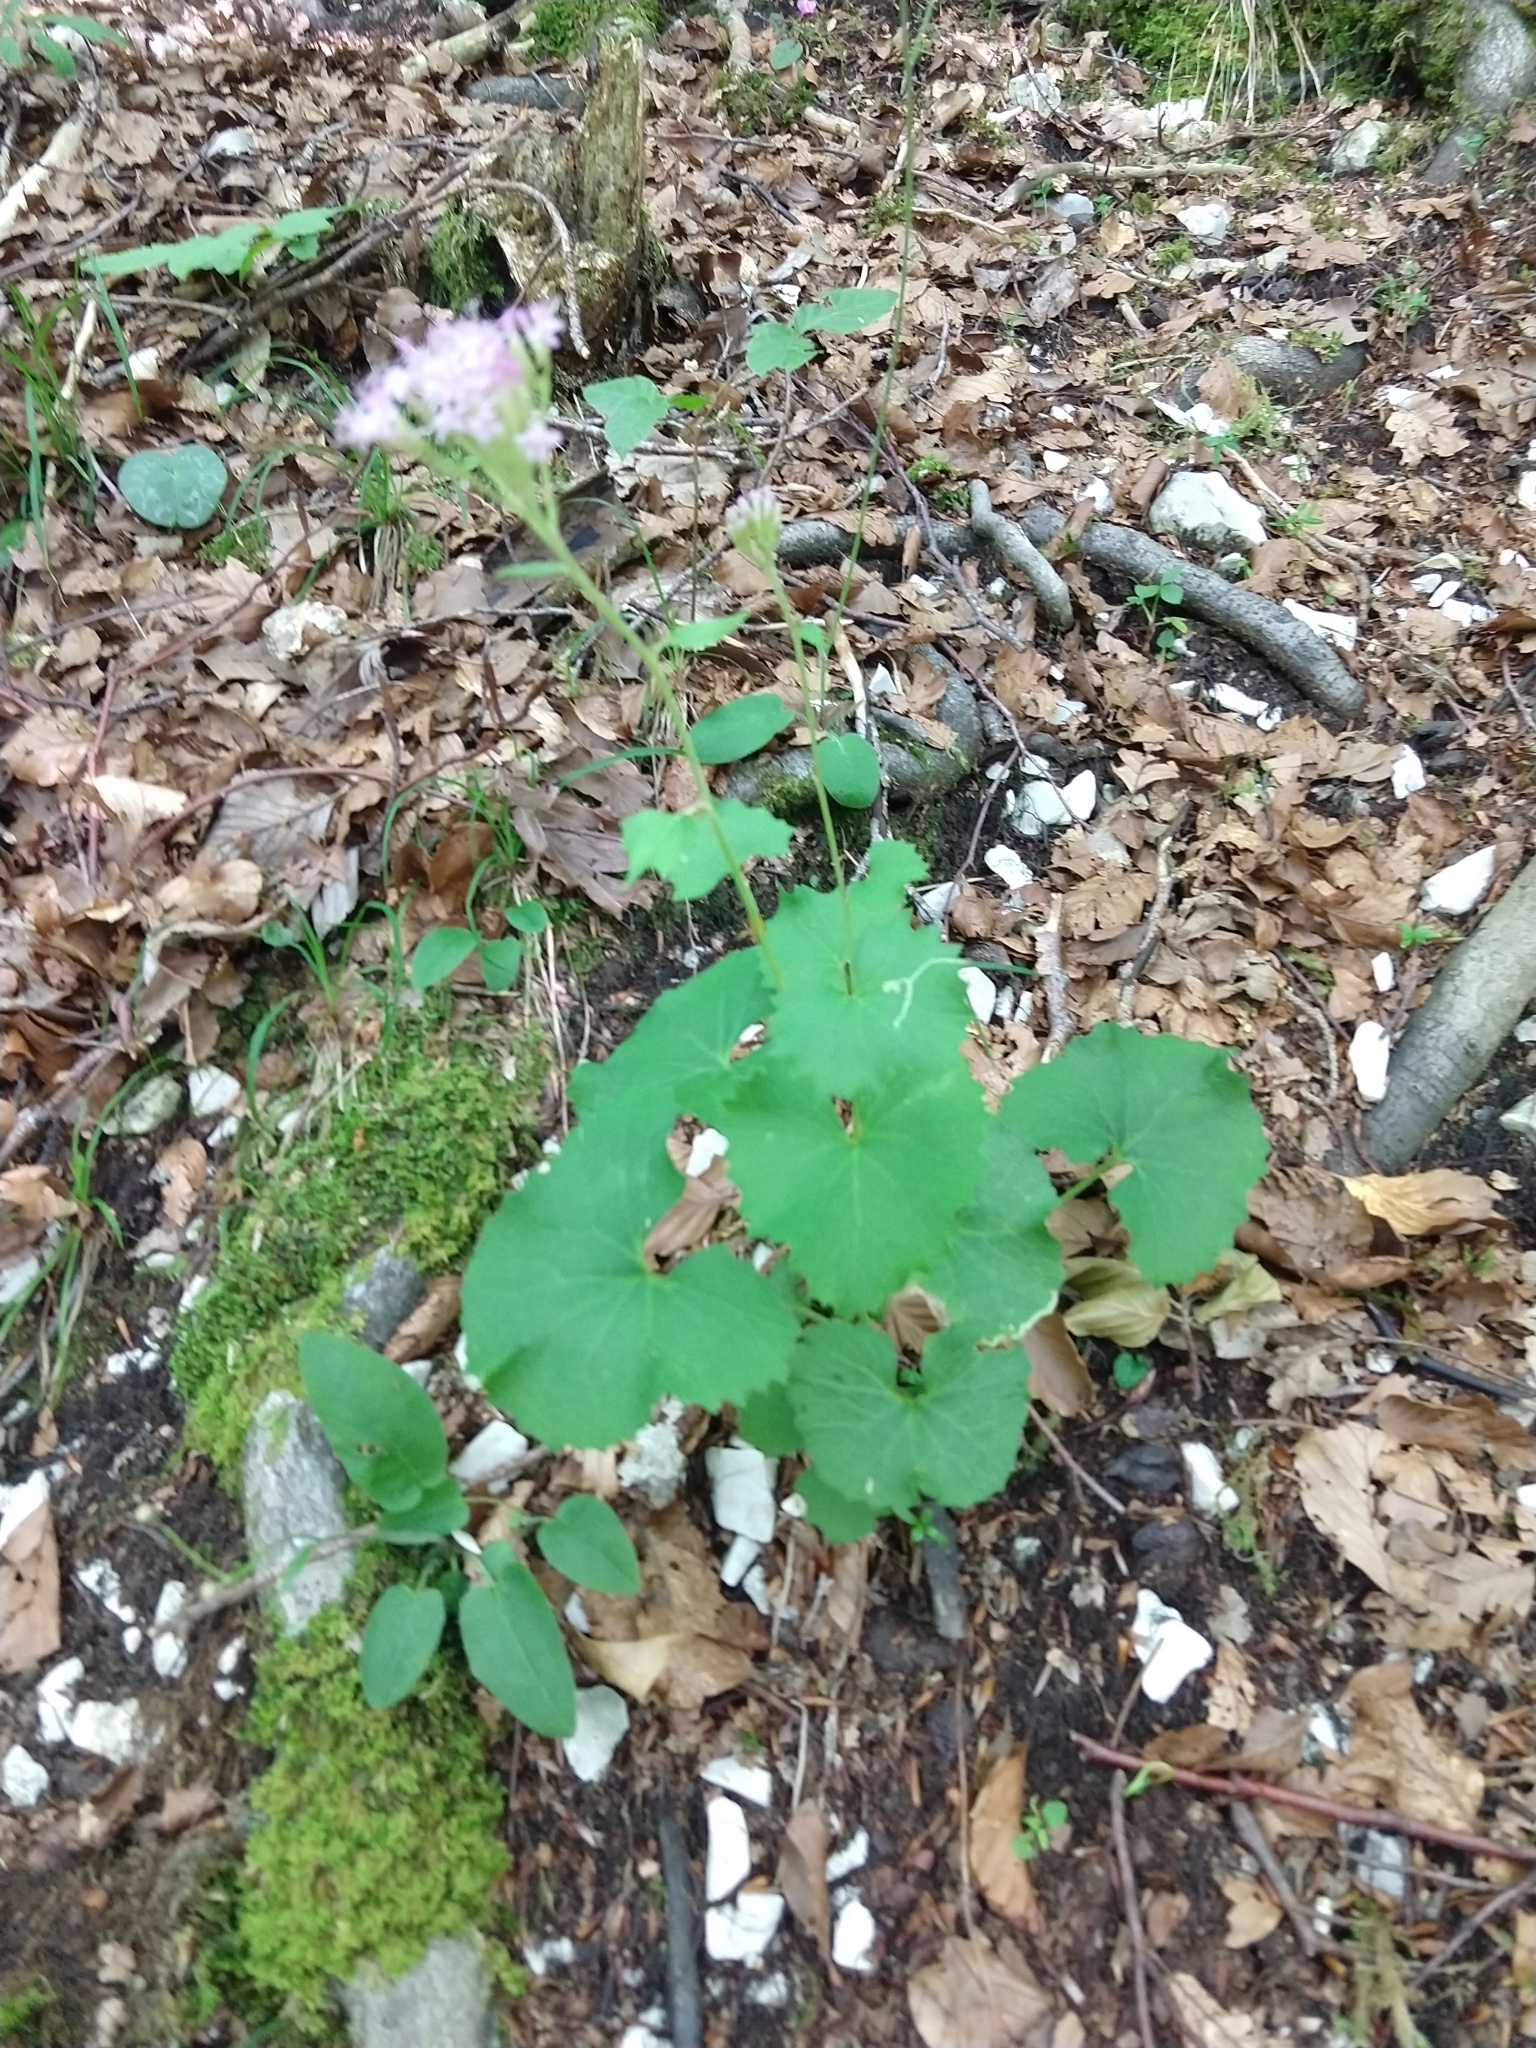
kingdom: Plantae
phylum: Tracheophyta
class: Magnoliopsida
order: Asterales
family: Asteraceae
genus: Adenostyles
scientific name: Adenostyles alpina
